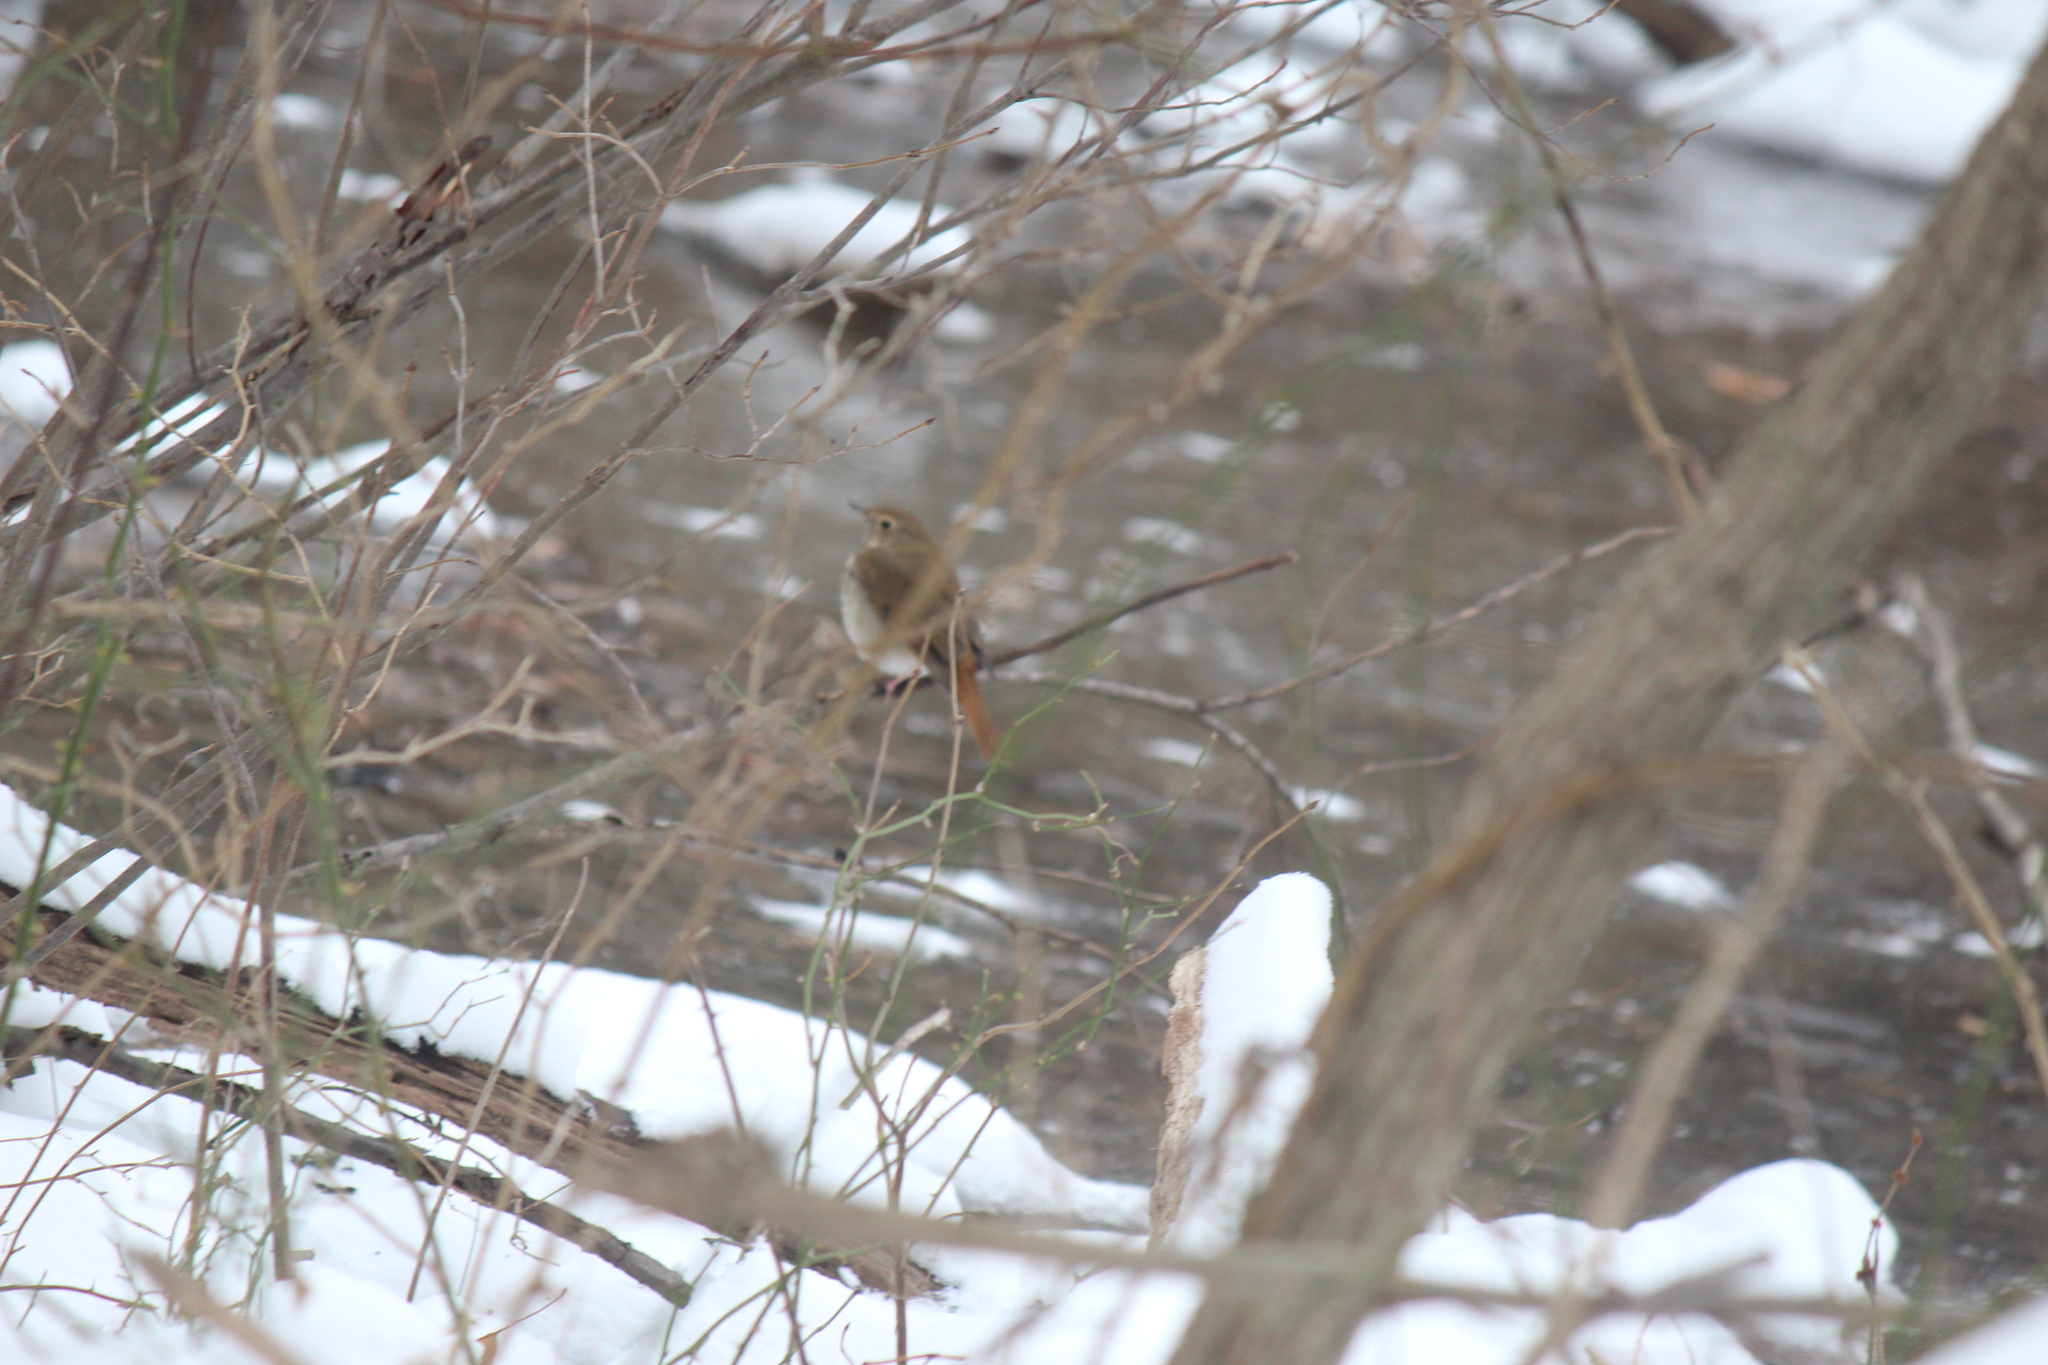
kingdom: Animalia
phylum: Chordata
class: Aves
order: Passeriformes
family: Turdidae
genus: Catharus
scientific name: Catharus guttatus
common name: Hermit thrush
